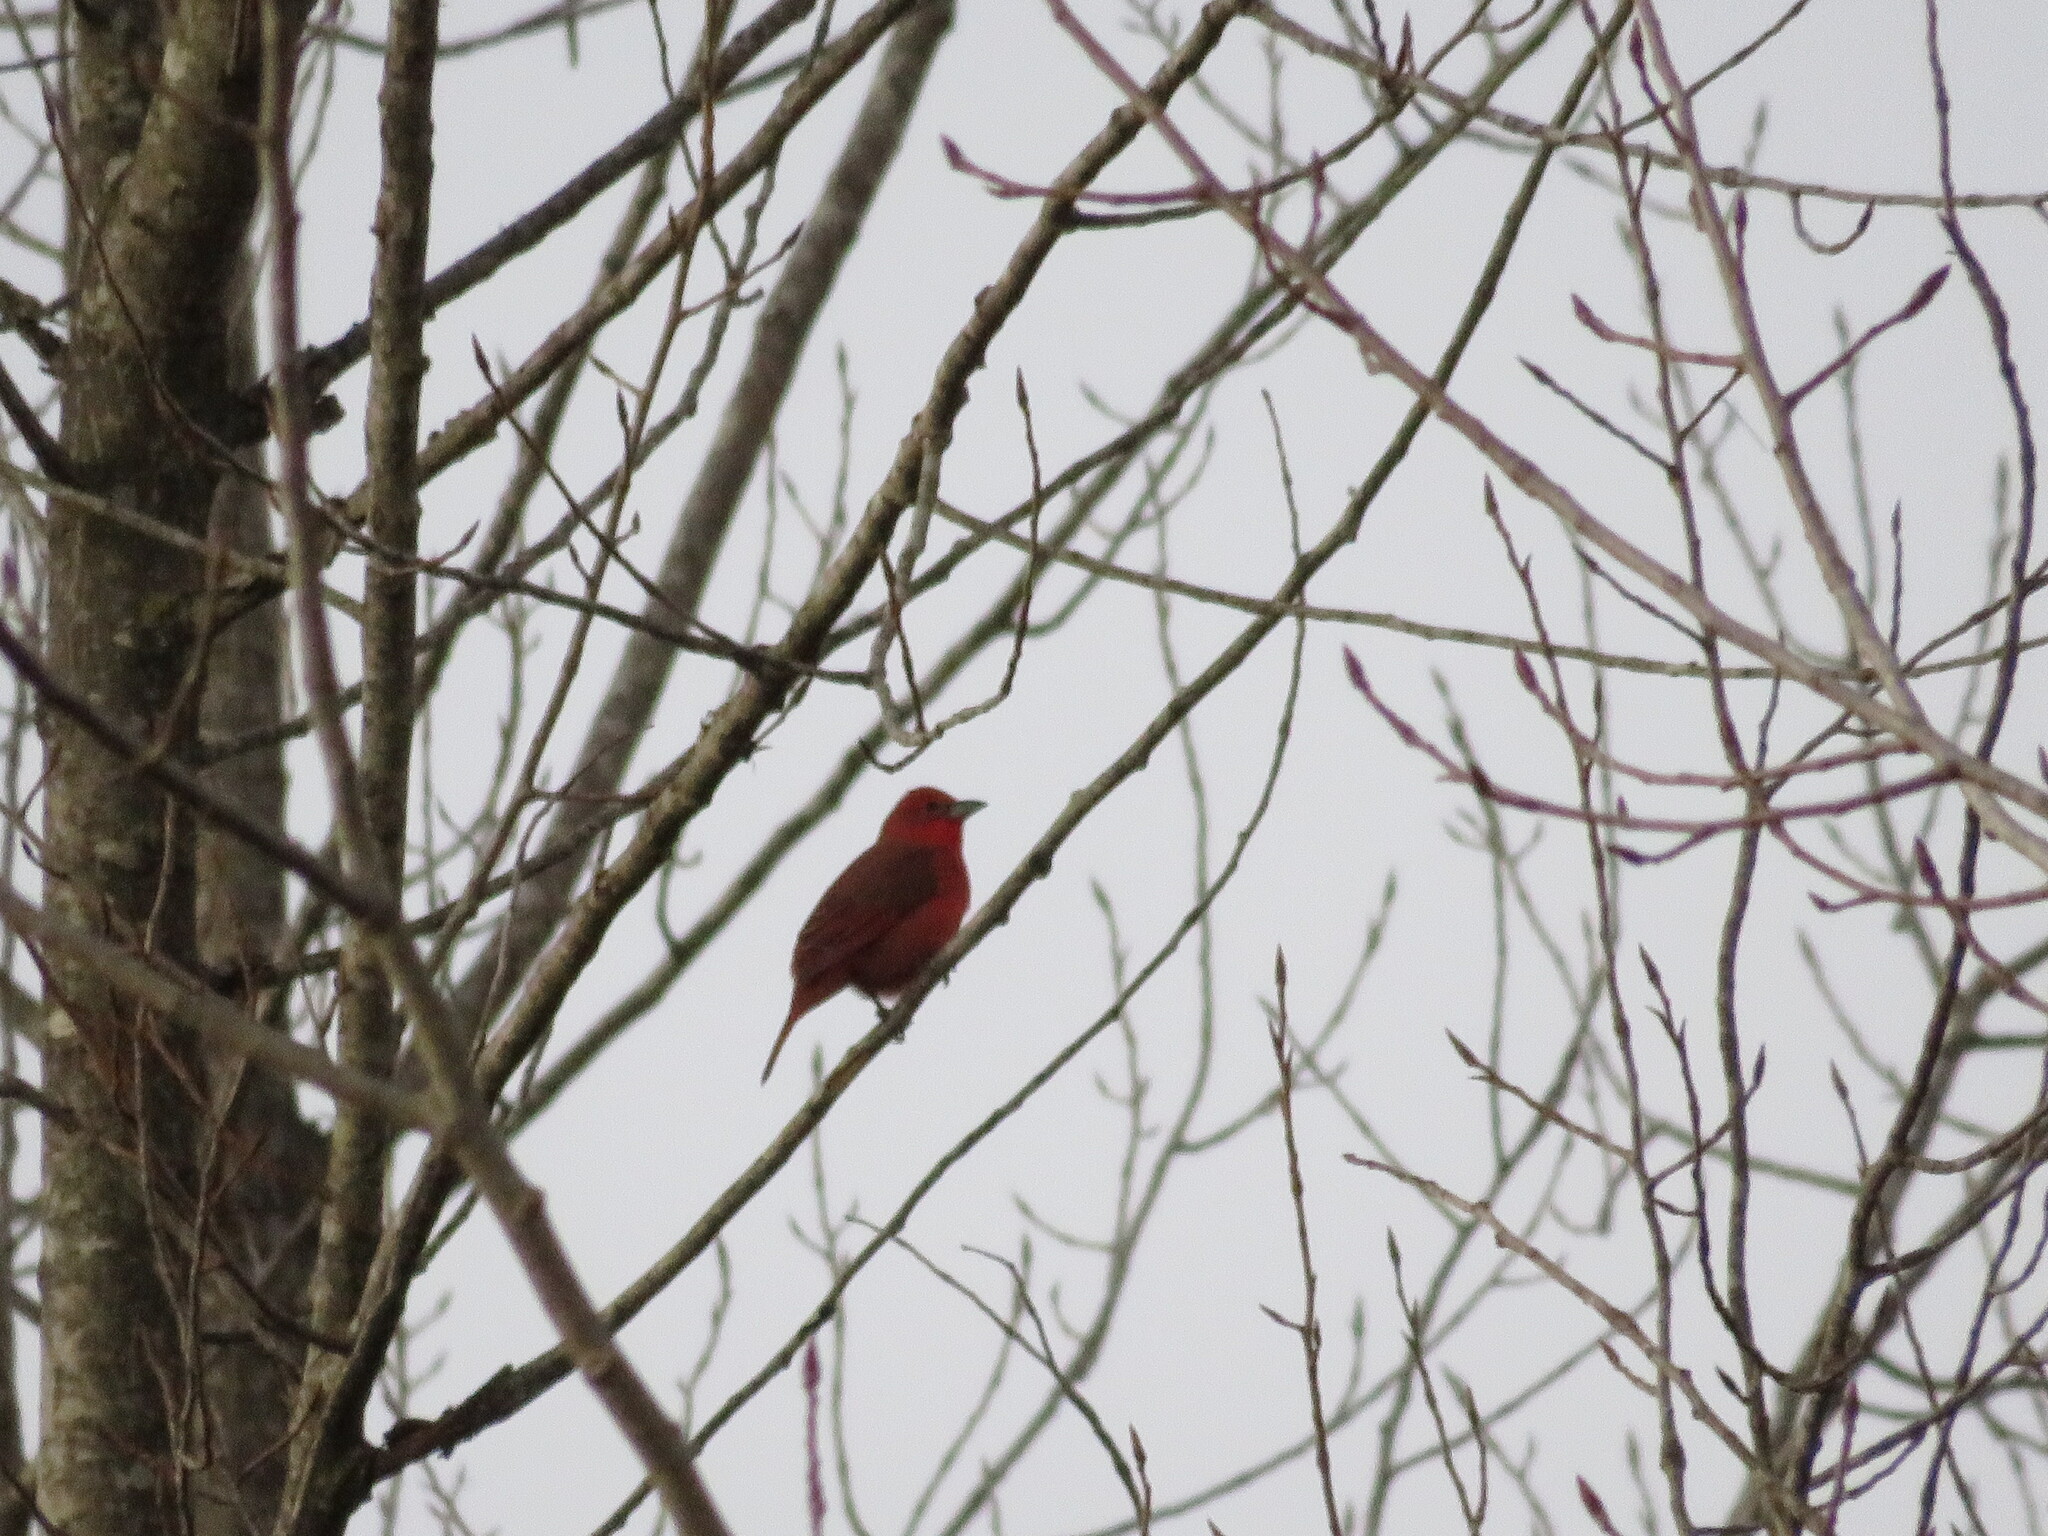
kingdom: Animalia
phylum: Chordata
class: Aves
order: Passeriformes
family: Cardinalidae
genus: Piranga
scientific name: Piranga flava
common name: Red tanager
